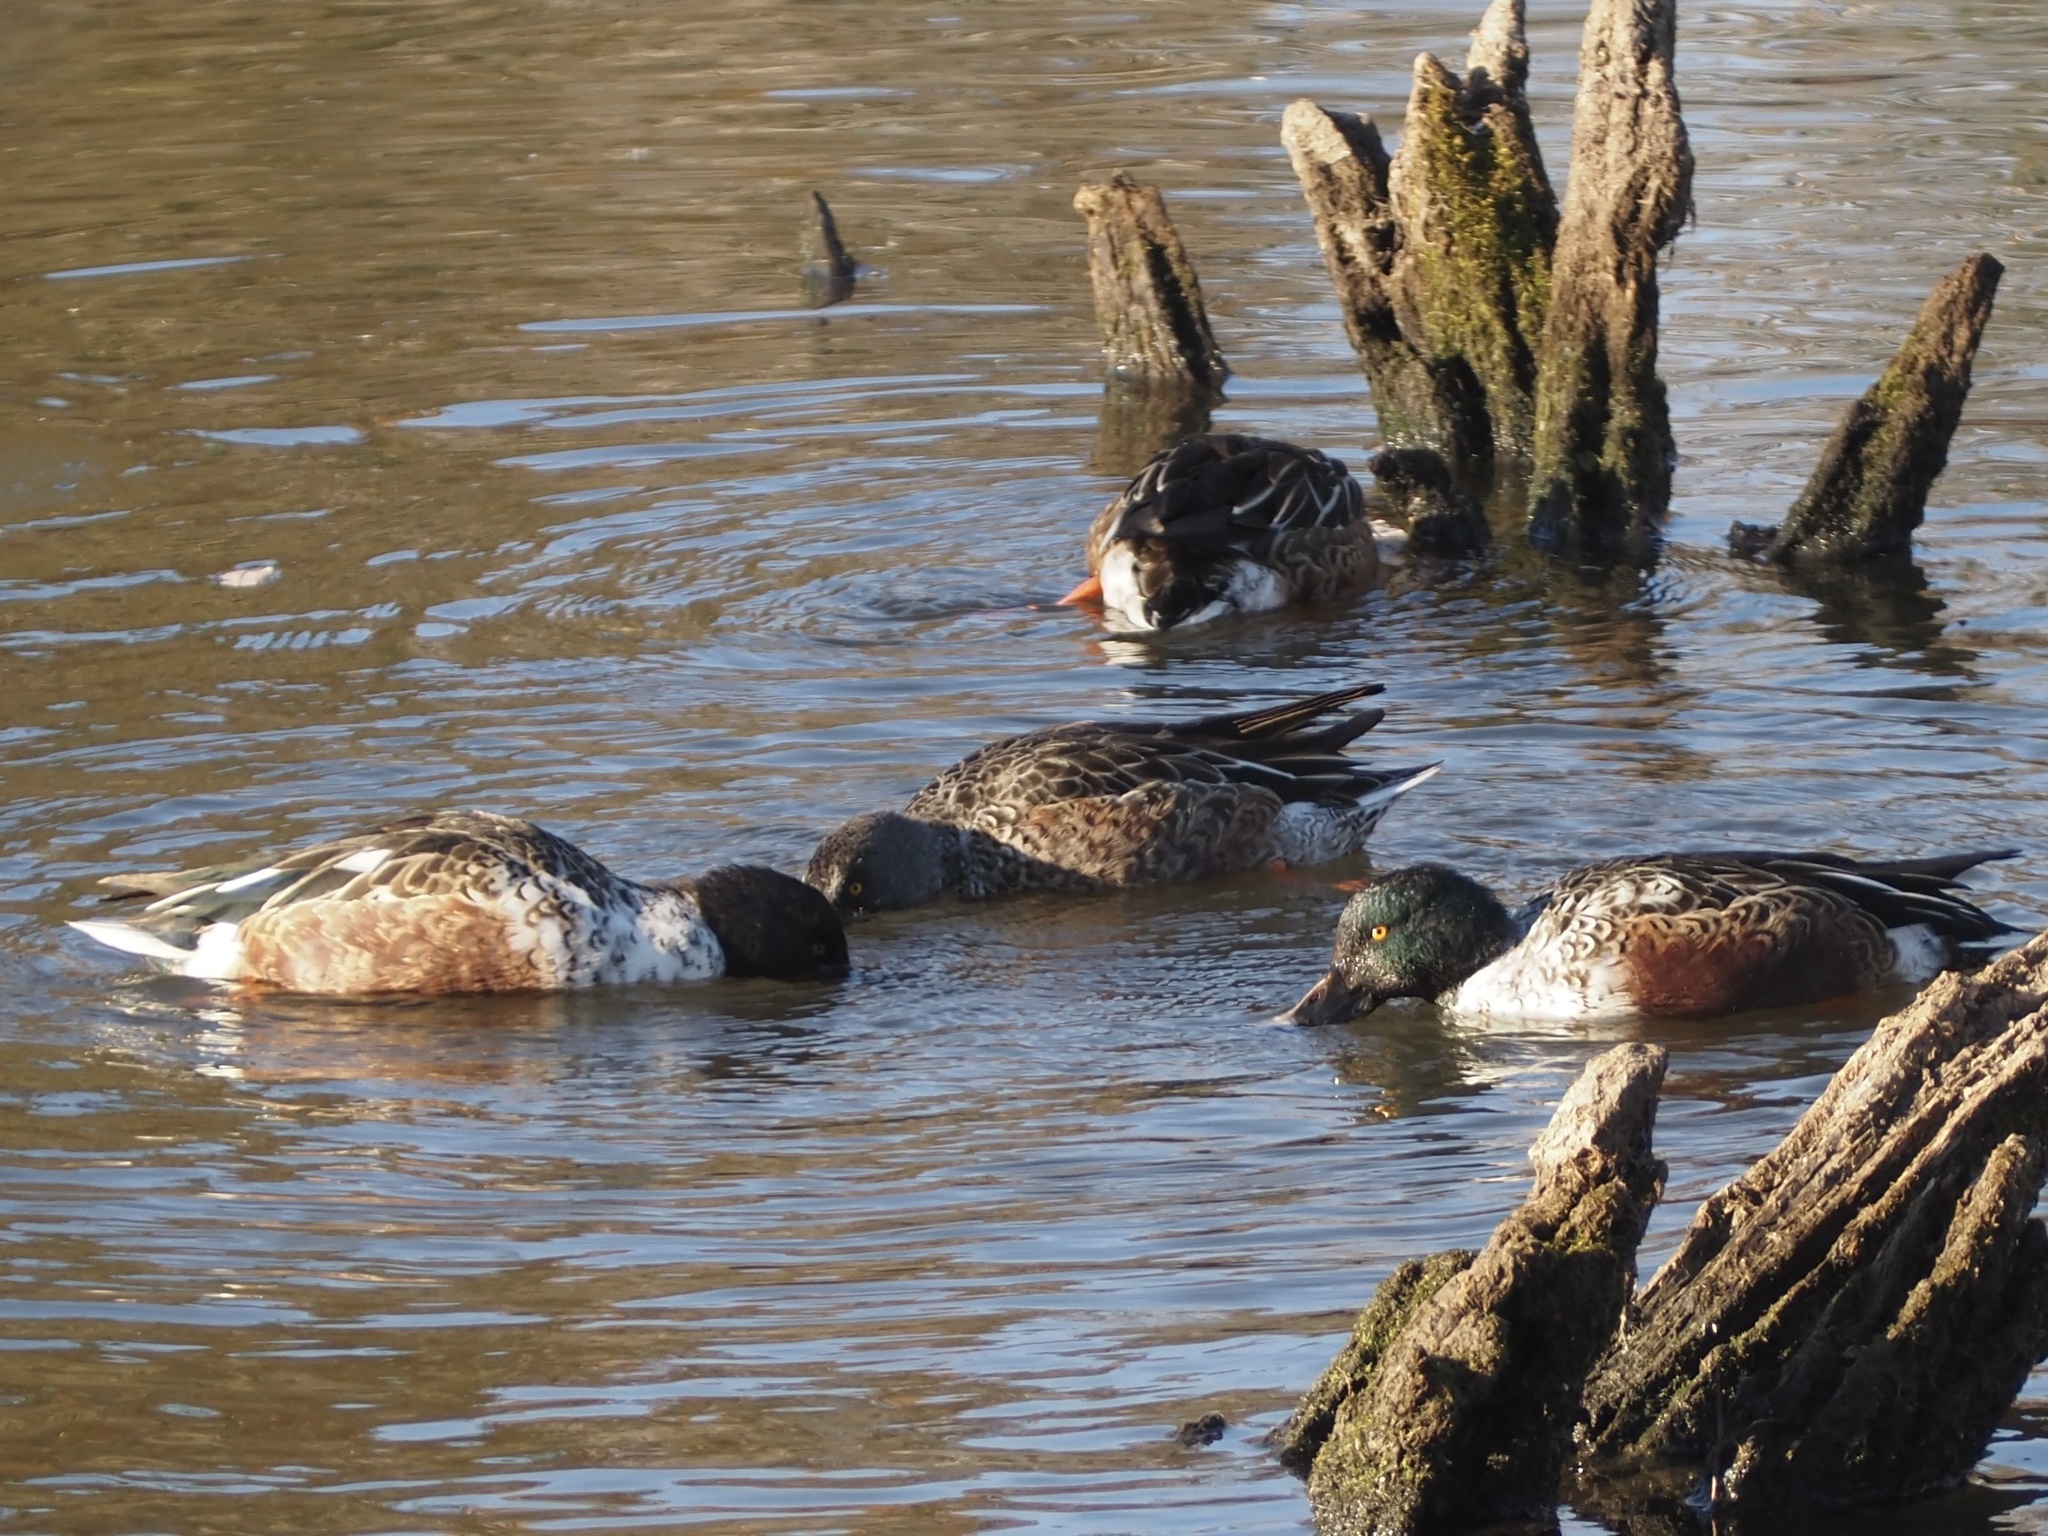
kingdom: Animalia
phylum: Chordata
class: Aves
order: Anseriformes
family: Anatidae
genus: Spatula
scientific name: Spatula clypeata
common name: Northern shoveler
